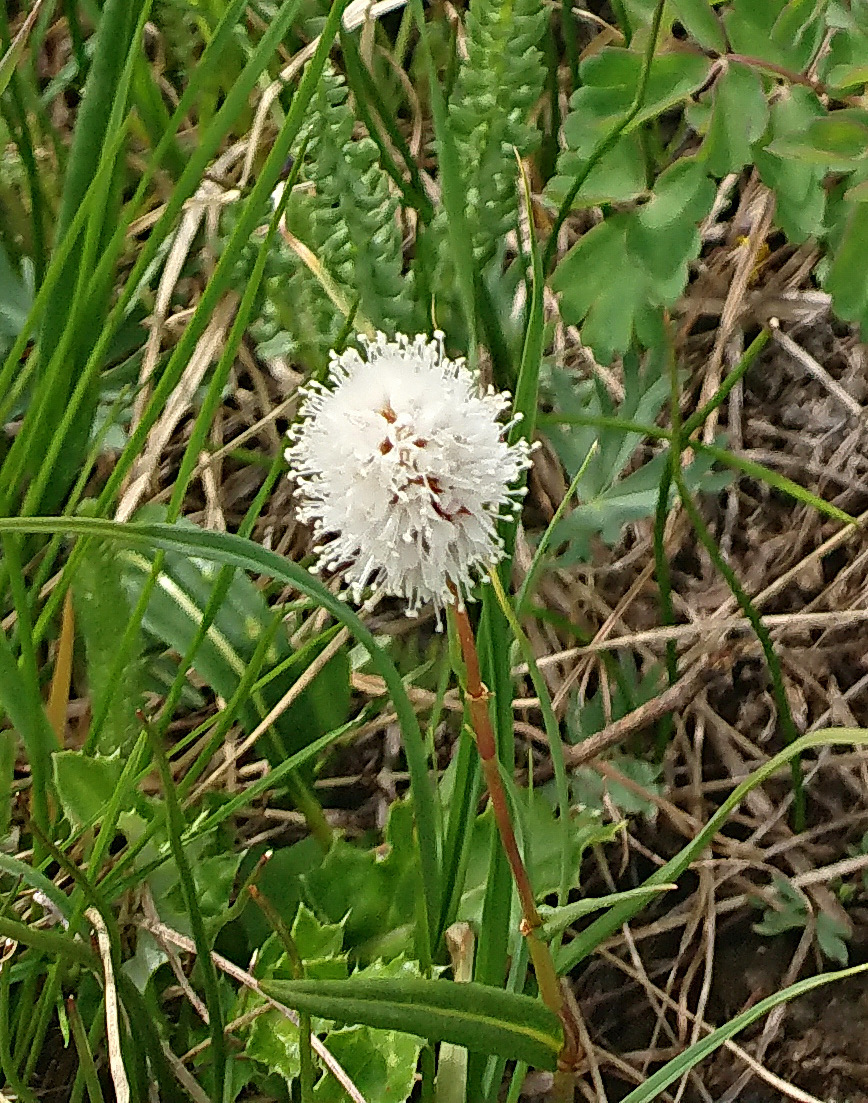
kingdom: Plantae
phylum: Tracheophyta
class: Magnoliopsida
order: Caryophyllales
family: Polygonaceae
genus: Bistorta
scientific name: Bistorta bistortoides
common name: American bistort
